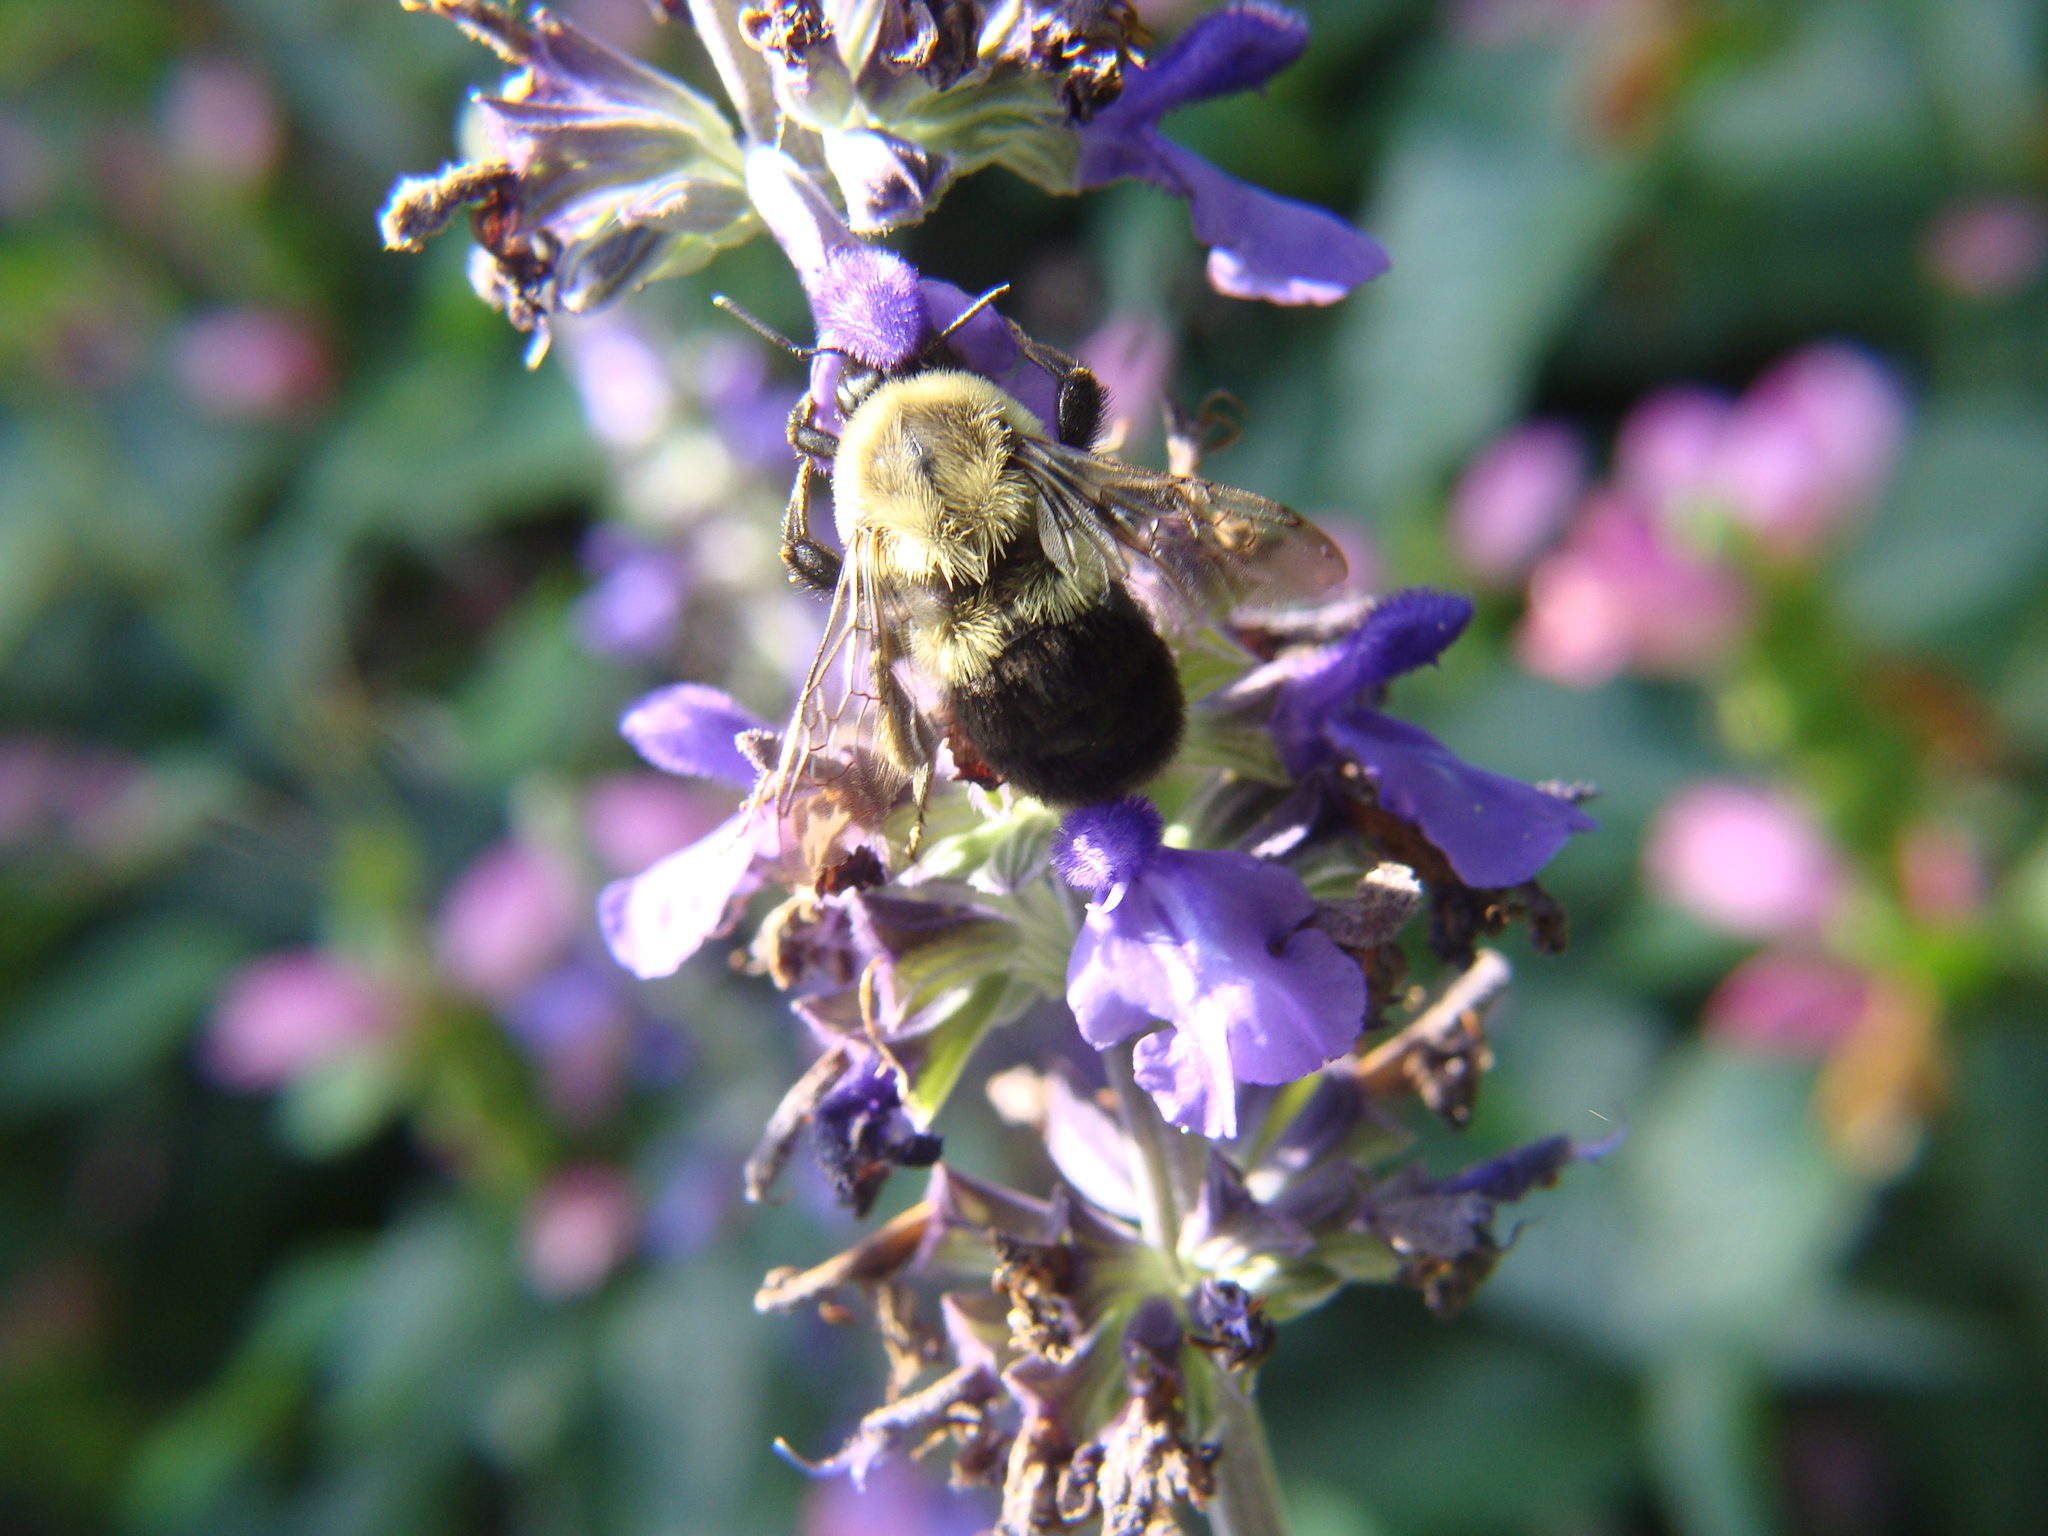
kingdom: Animalia
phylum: Arthropoda
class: Insecta
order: Hymenoptera
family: Apidae
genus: Bombus
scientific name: Bombus impatiens
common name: Common eastern bumble bee
